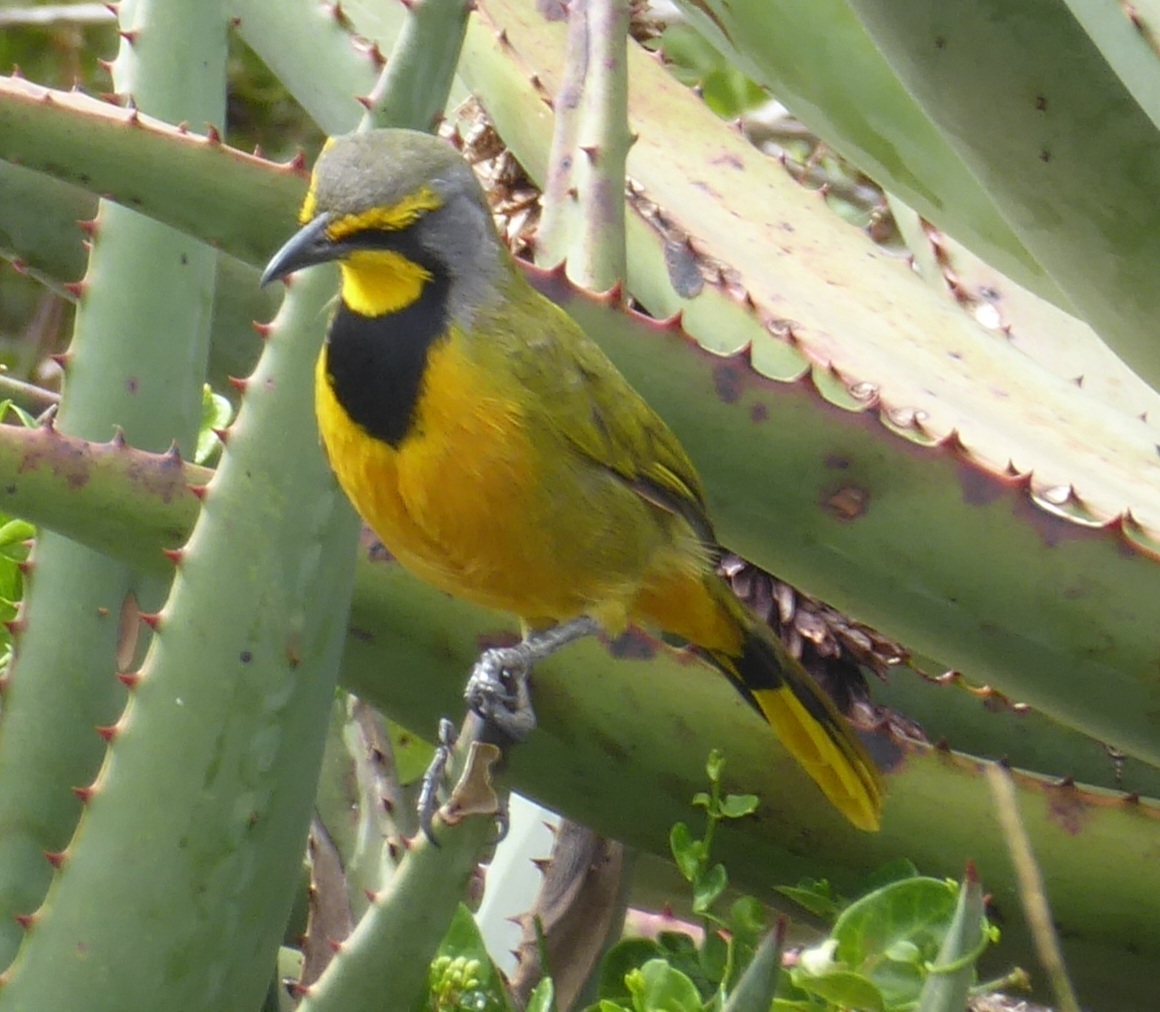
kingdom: Animalia
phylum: Chordata
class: Aves
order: Passeriformes
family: Malaconotidae
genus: Telophorus
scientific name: Telophorus zeylonus
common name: Bokmakierie
